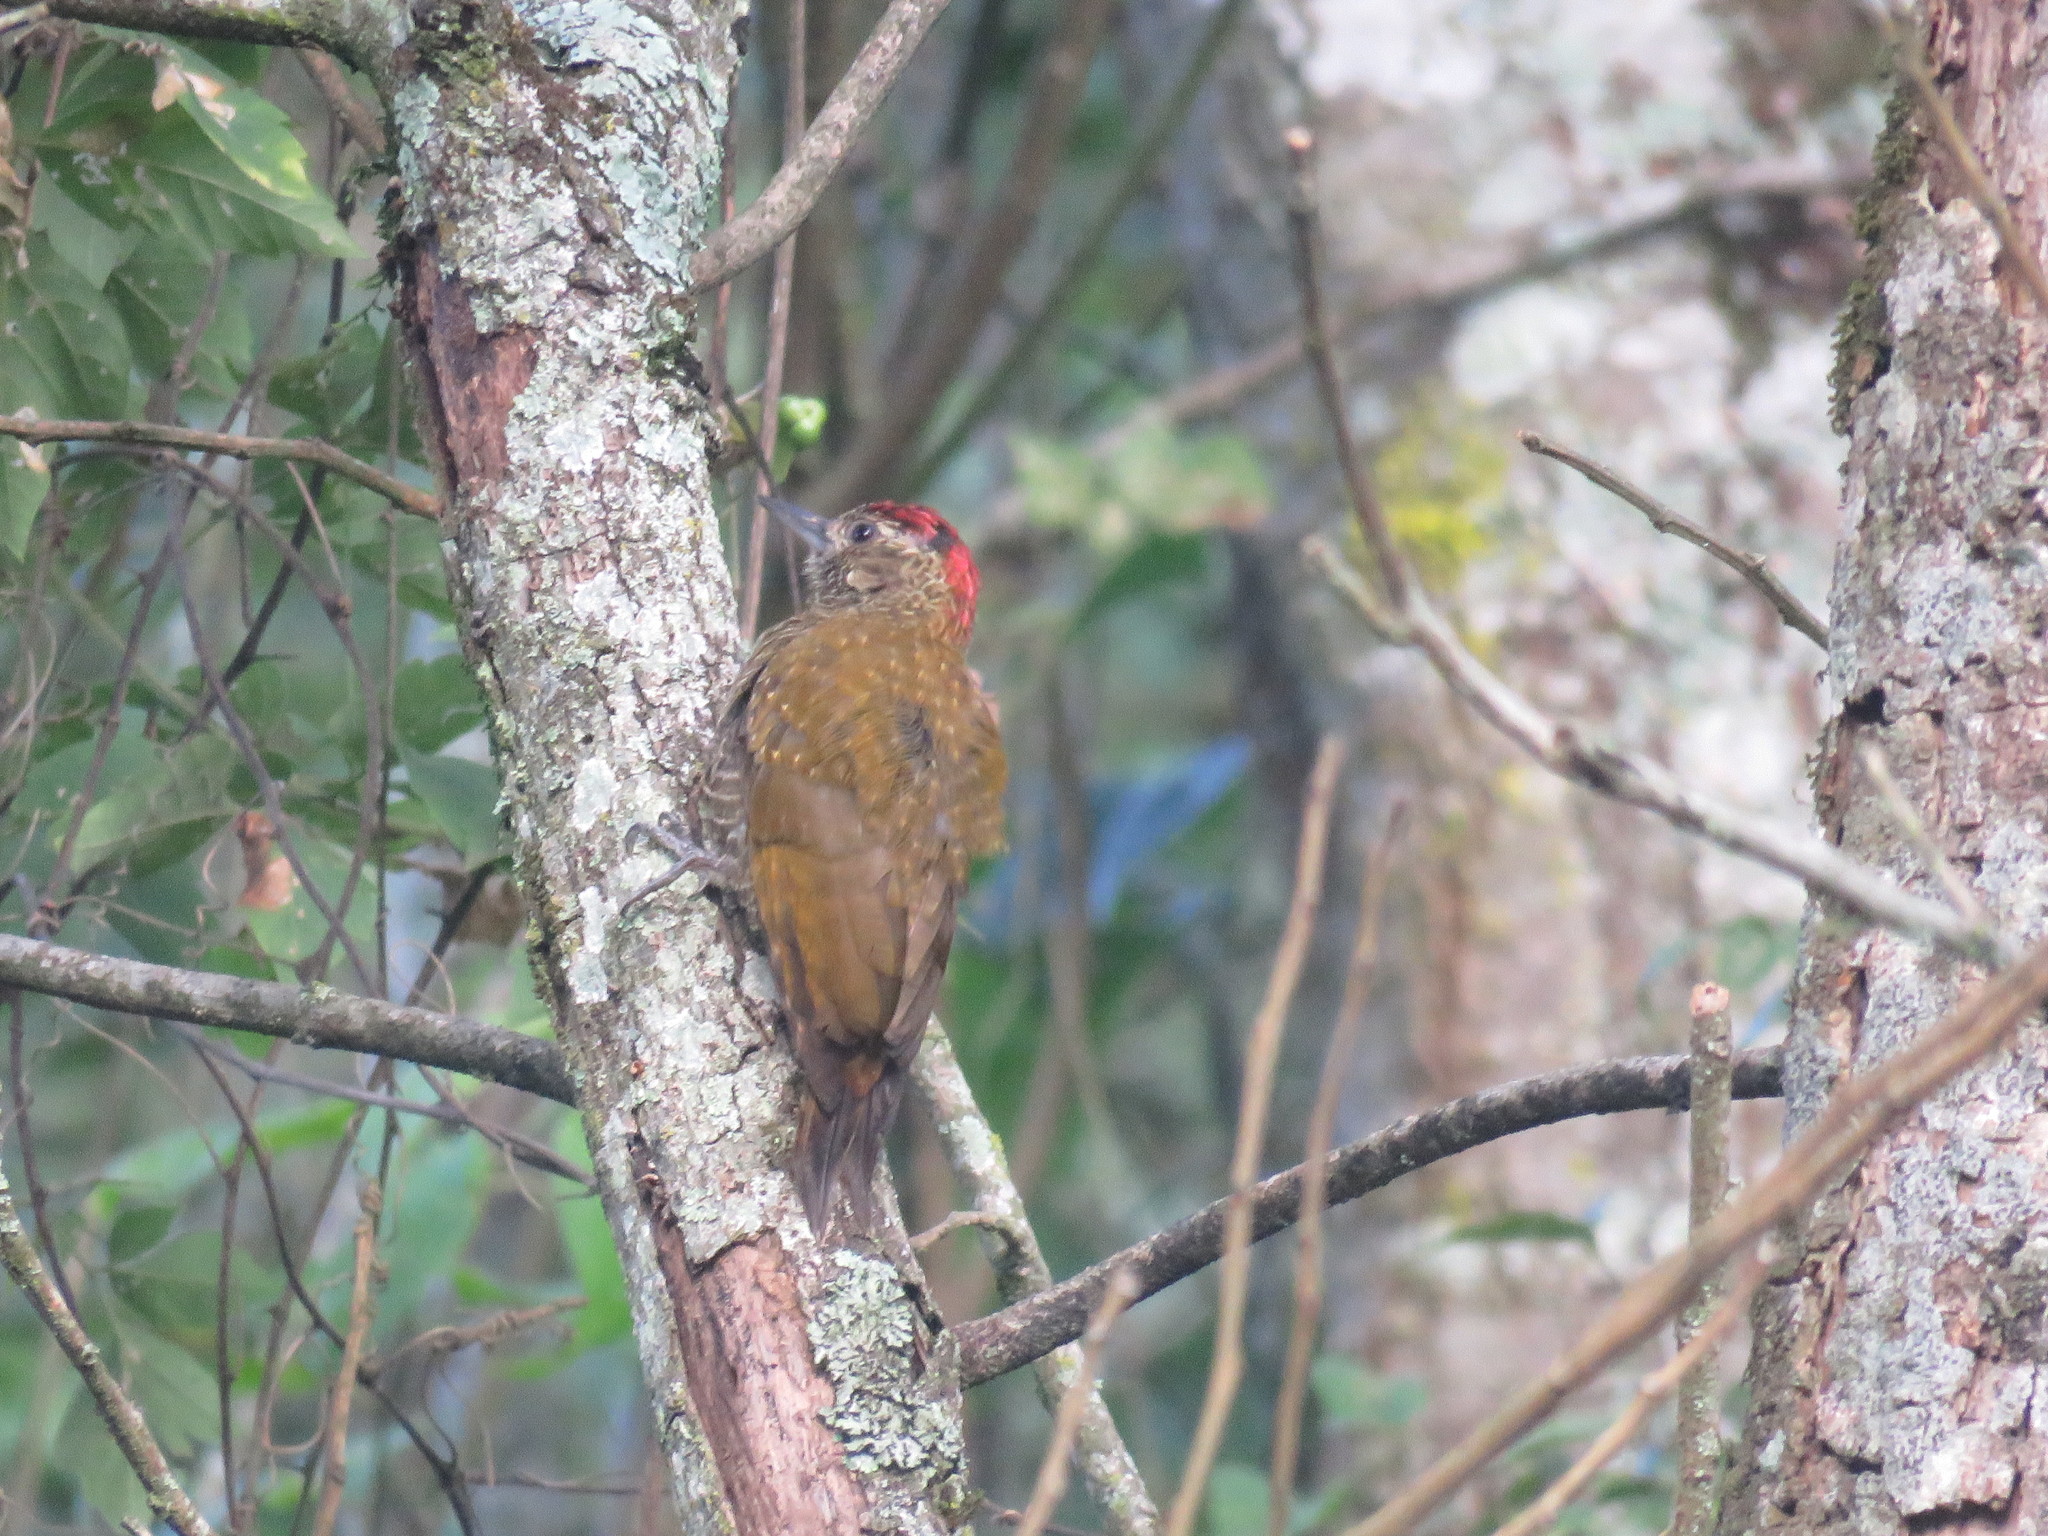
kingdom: Animalia
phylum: Chordata
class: Aves
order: Piciformes
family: Picidae
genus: Veniliornis
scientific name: Veniliornis frontalis
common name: Dot-fronted woodpecker
